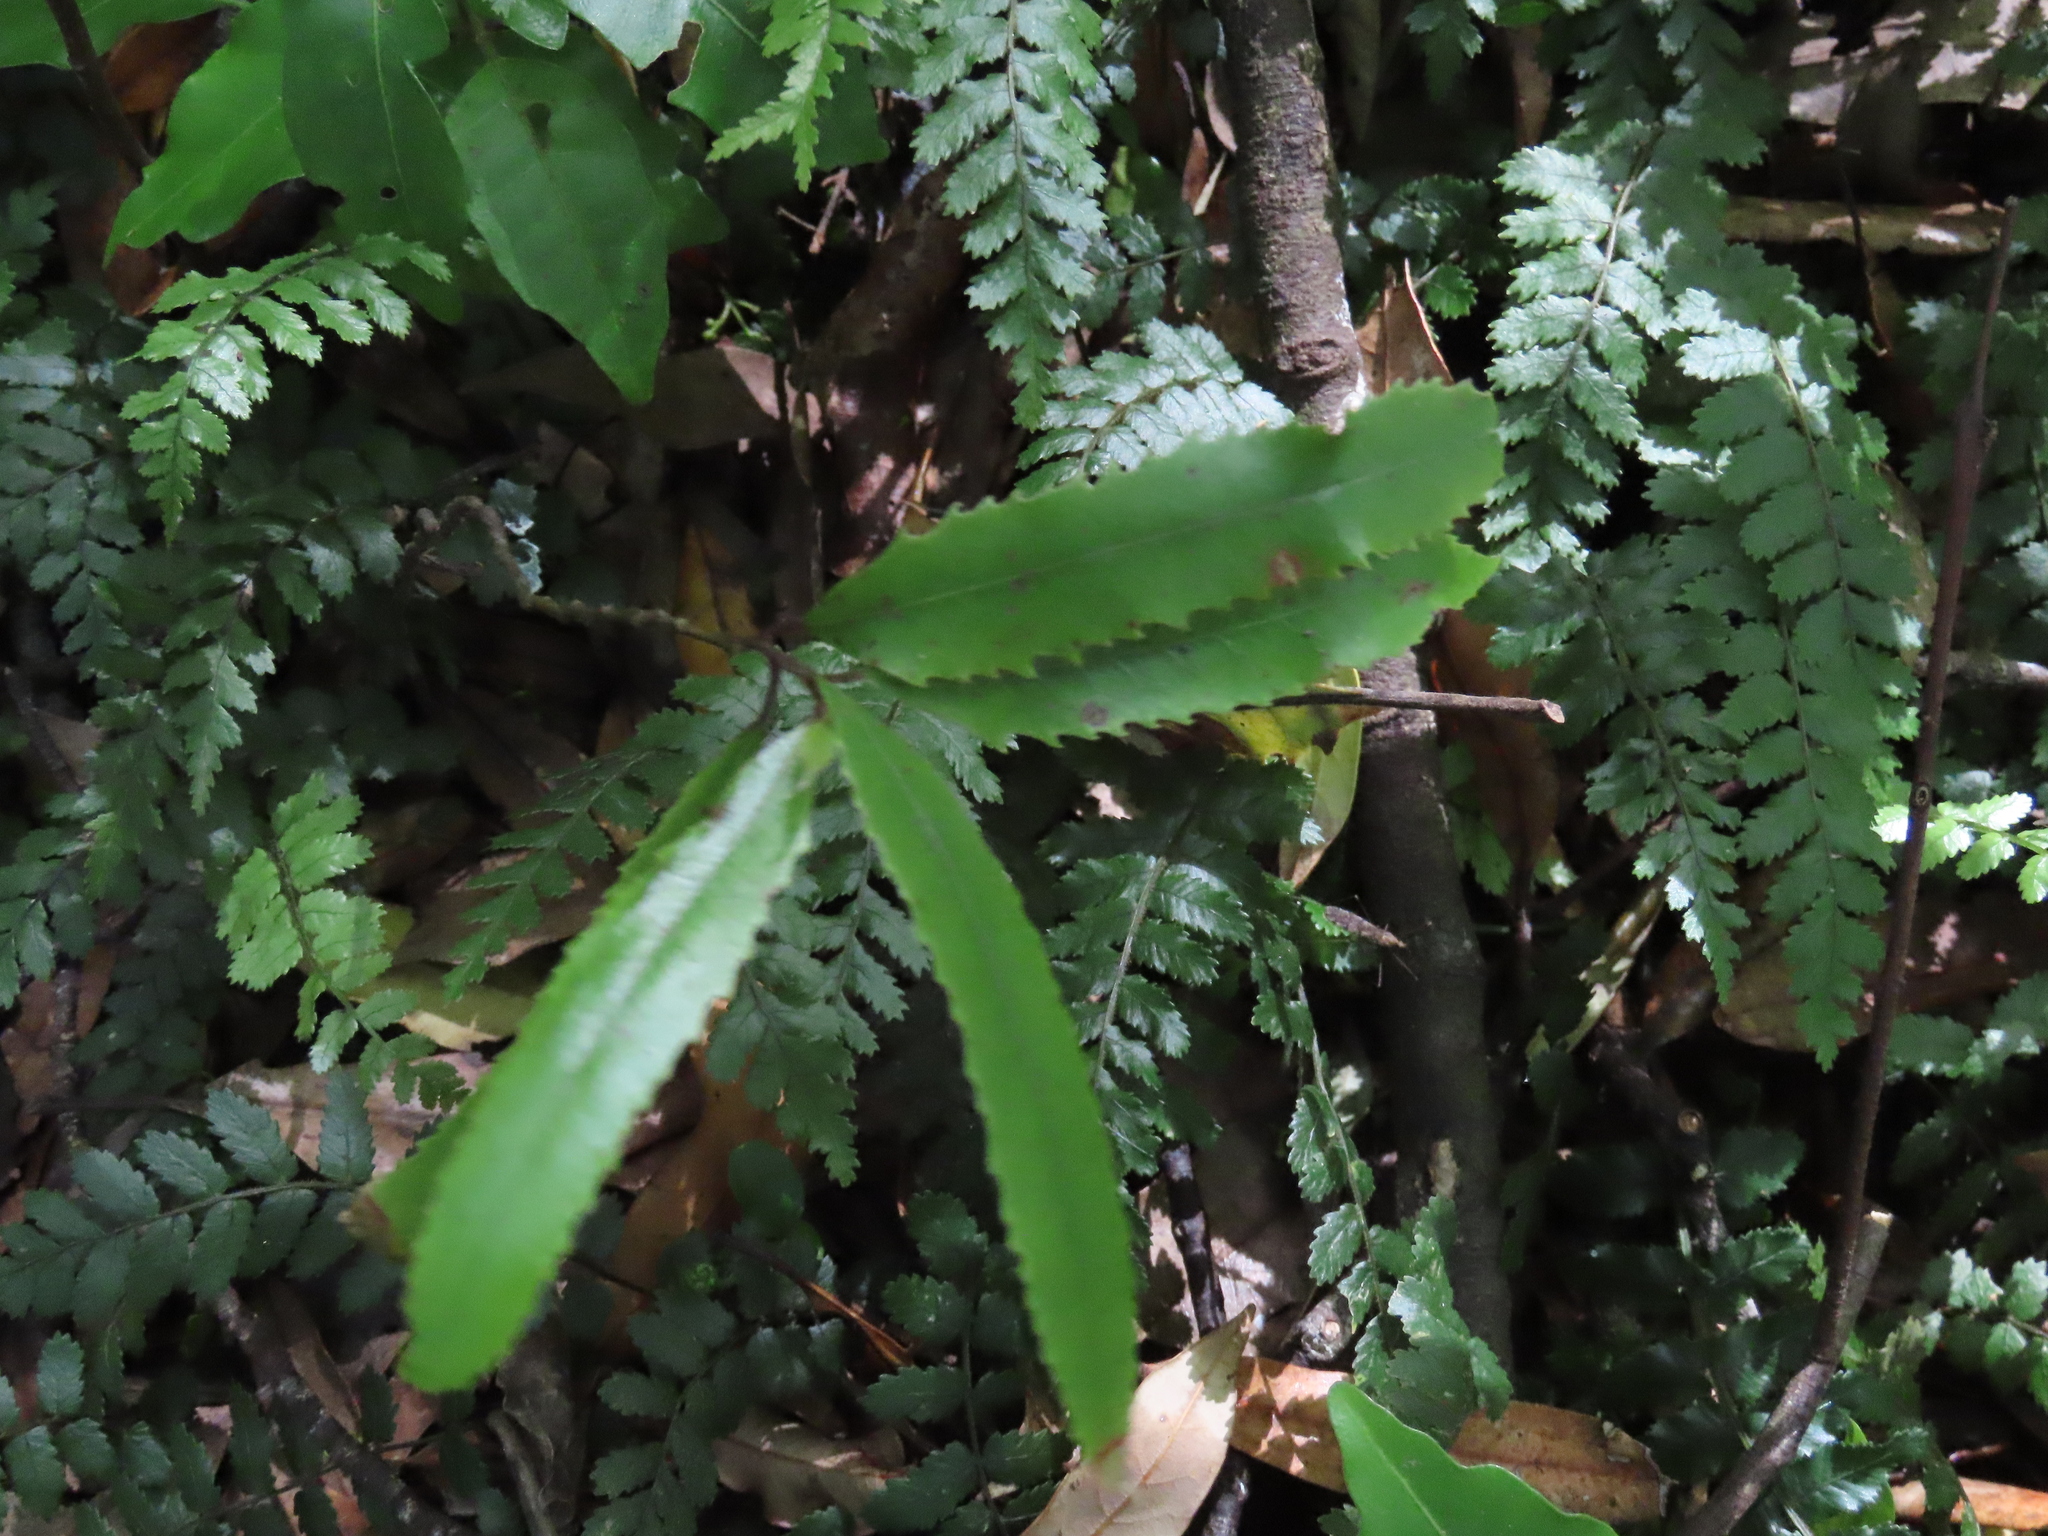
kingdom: Plantae
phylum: Tracheophyta
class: Magnoliopsida
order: Proteales
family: Proteaceae
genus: Knightia
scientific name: Knightia excelsa
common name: New zealand-honeysuckle
